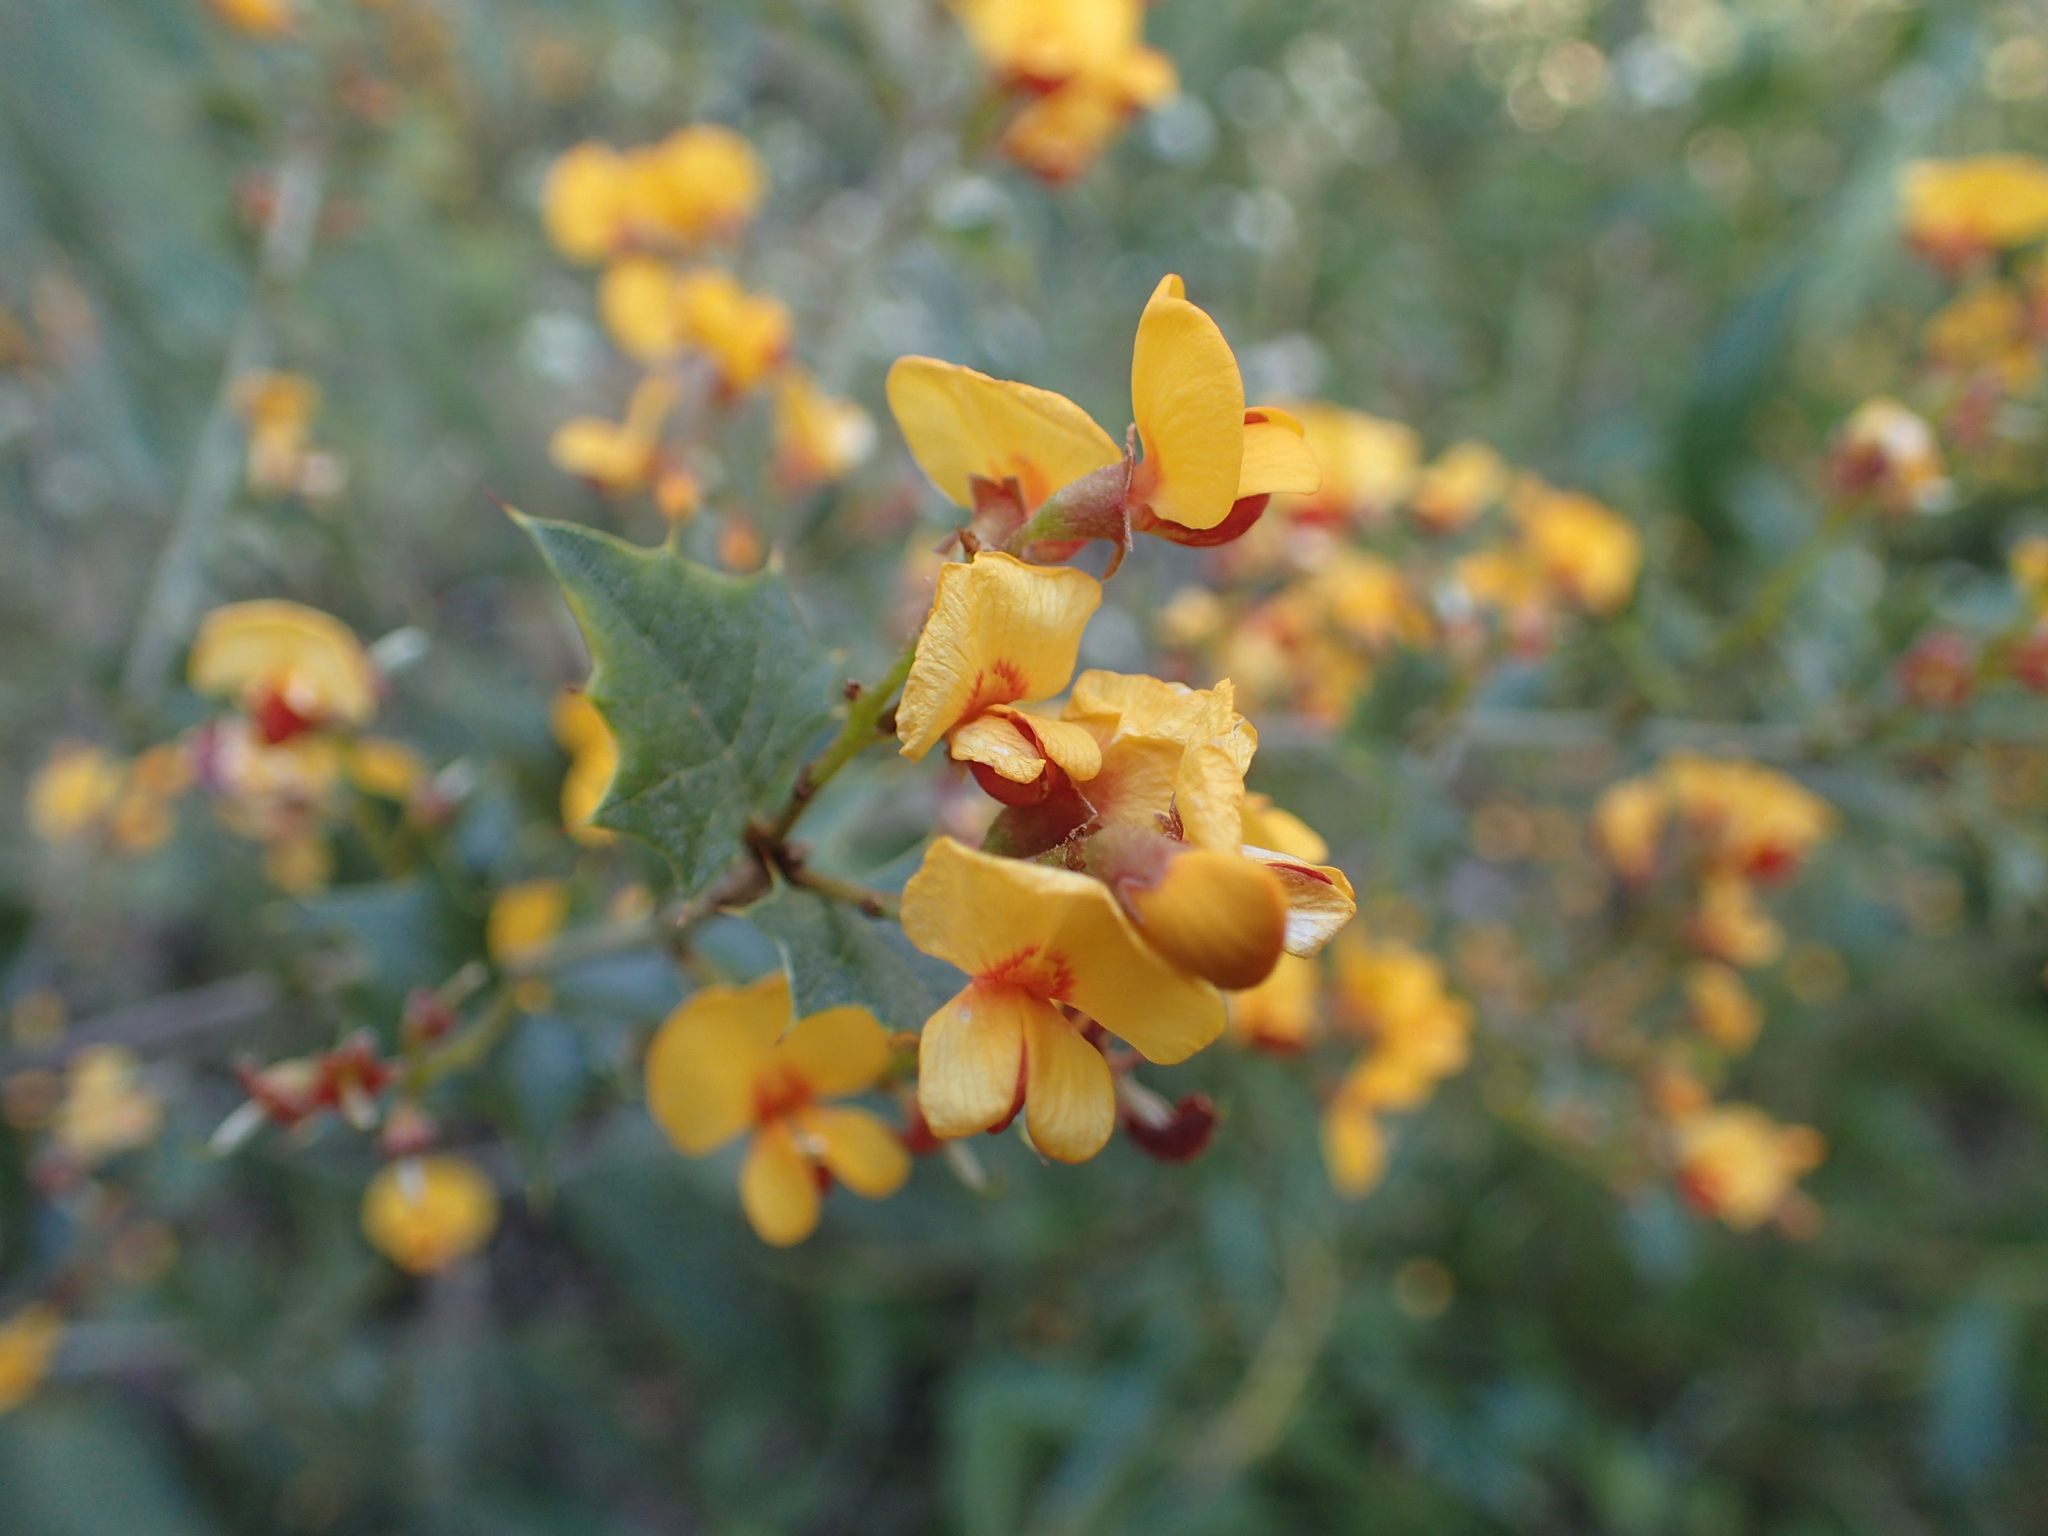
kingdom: Plantae
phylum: Tracheophyta
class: Magnoliopsida
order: Fabales
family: Fabaceae
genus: Podolobium
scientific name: Podolobium ilicifolium
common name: Native holly
